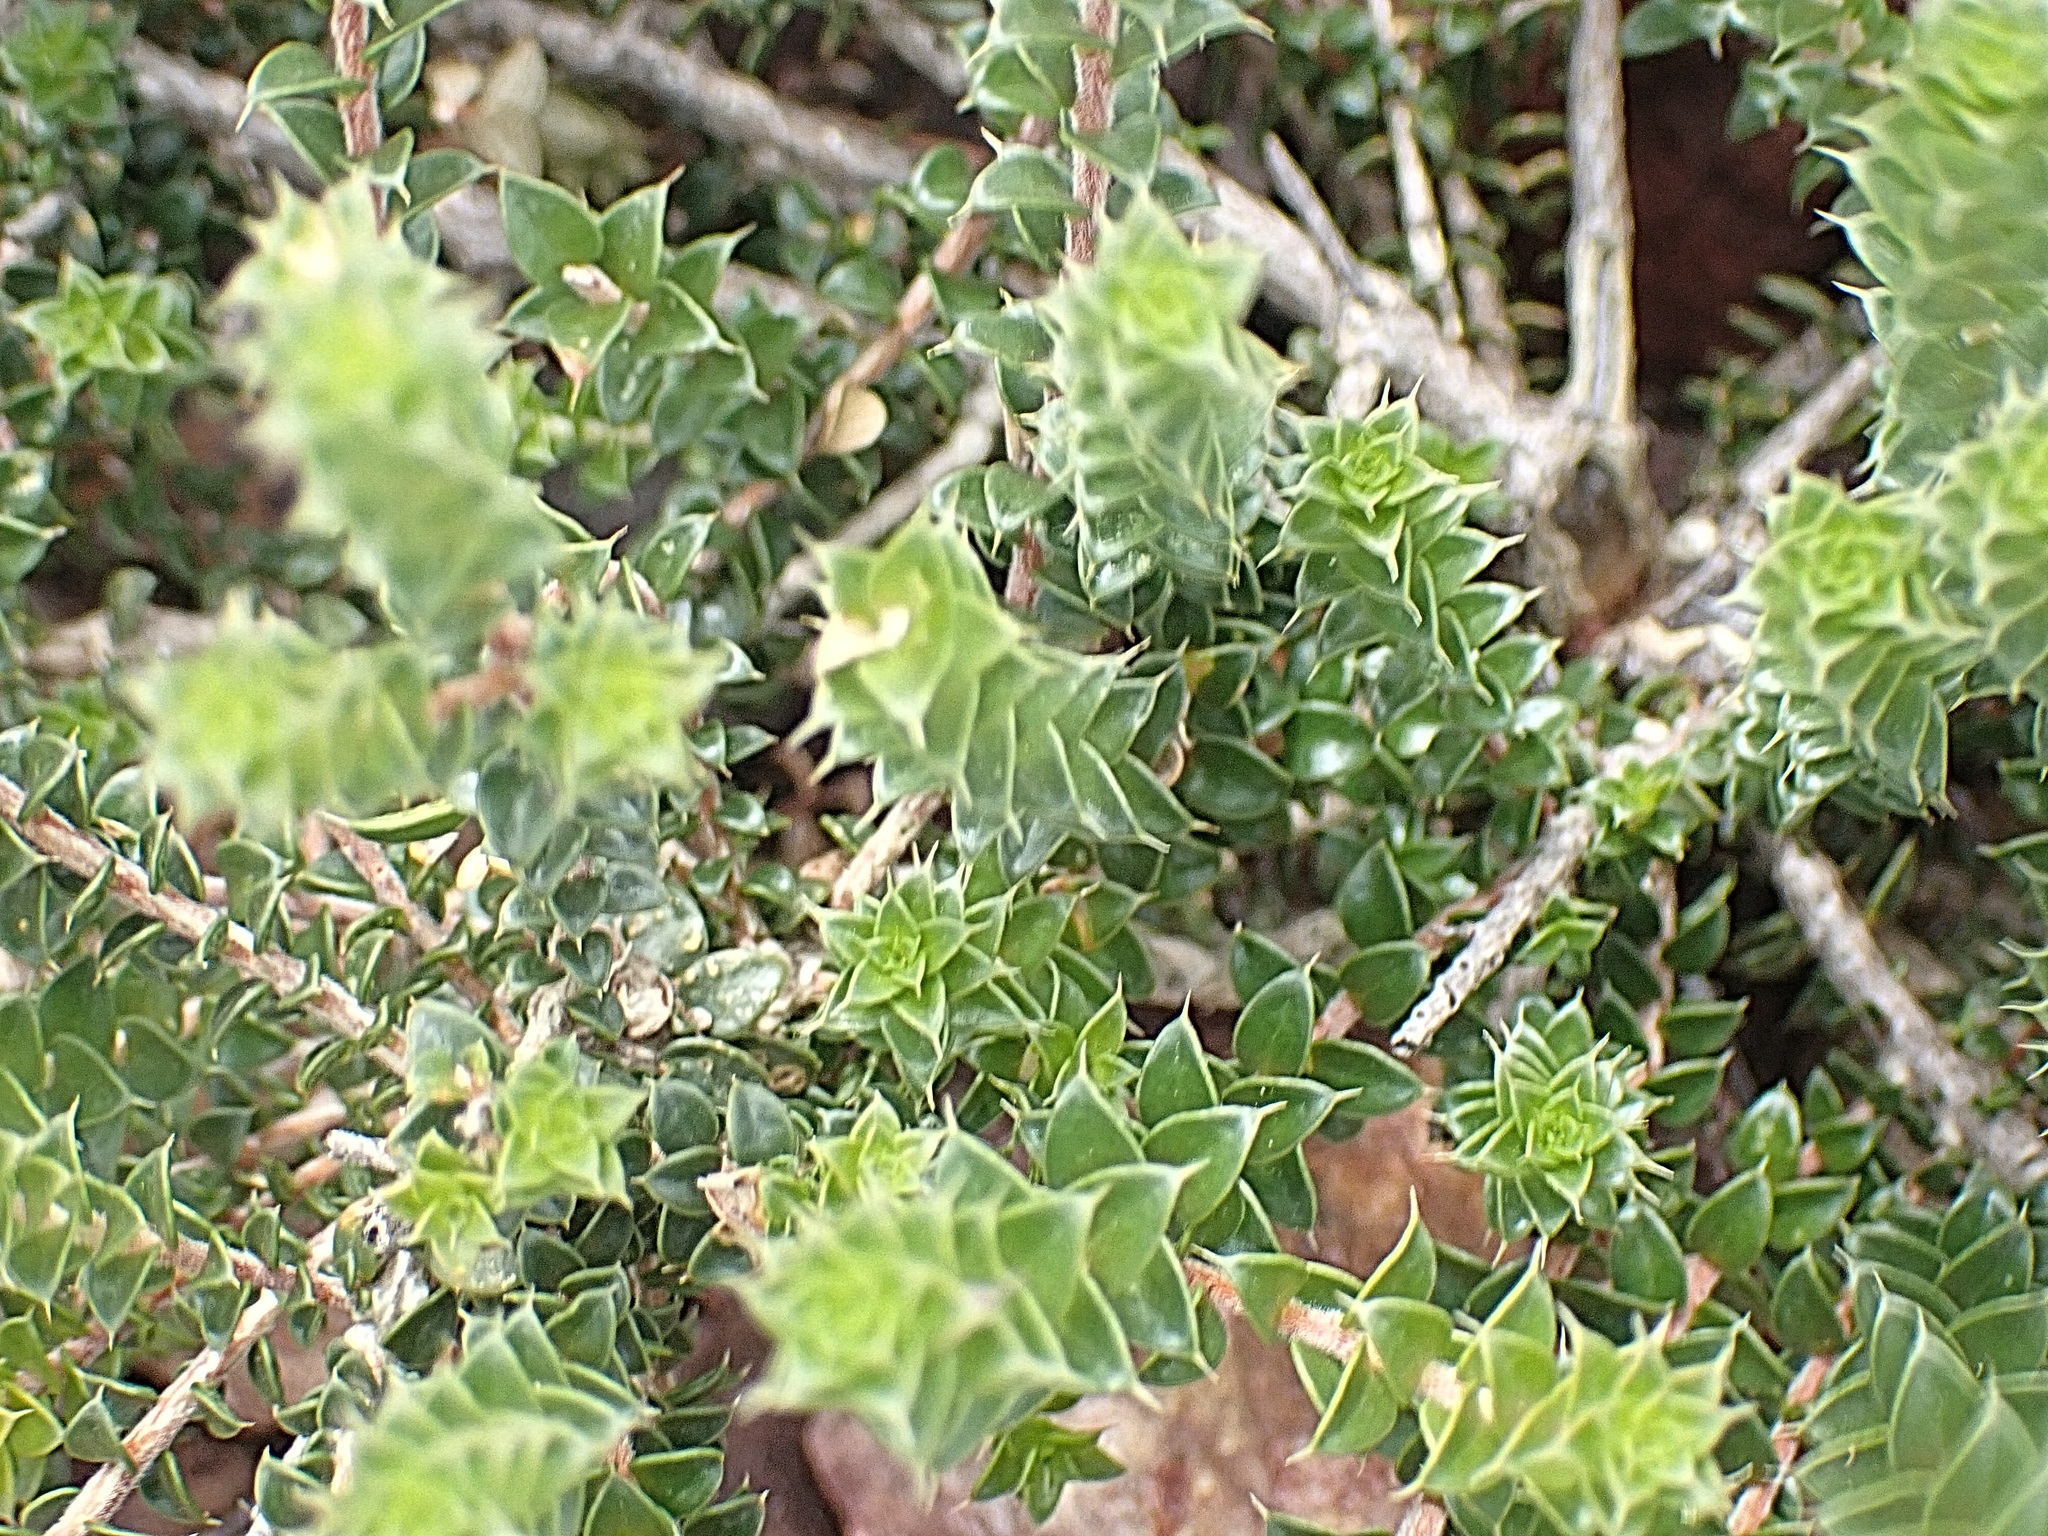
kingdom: Plantae
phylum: Tracheophyta
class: Magnoliopsida
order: Sapindales
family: Rutaceae
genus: Agathosma
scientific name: Agathosma recurvifolia
